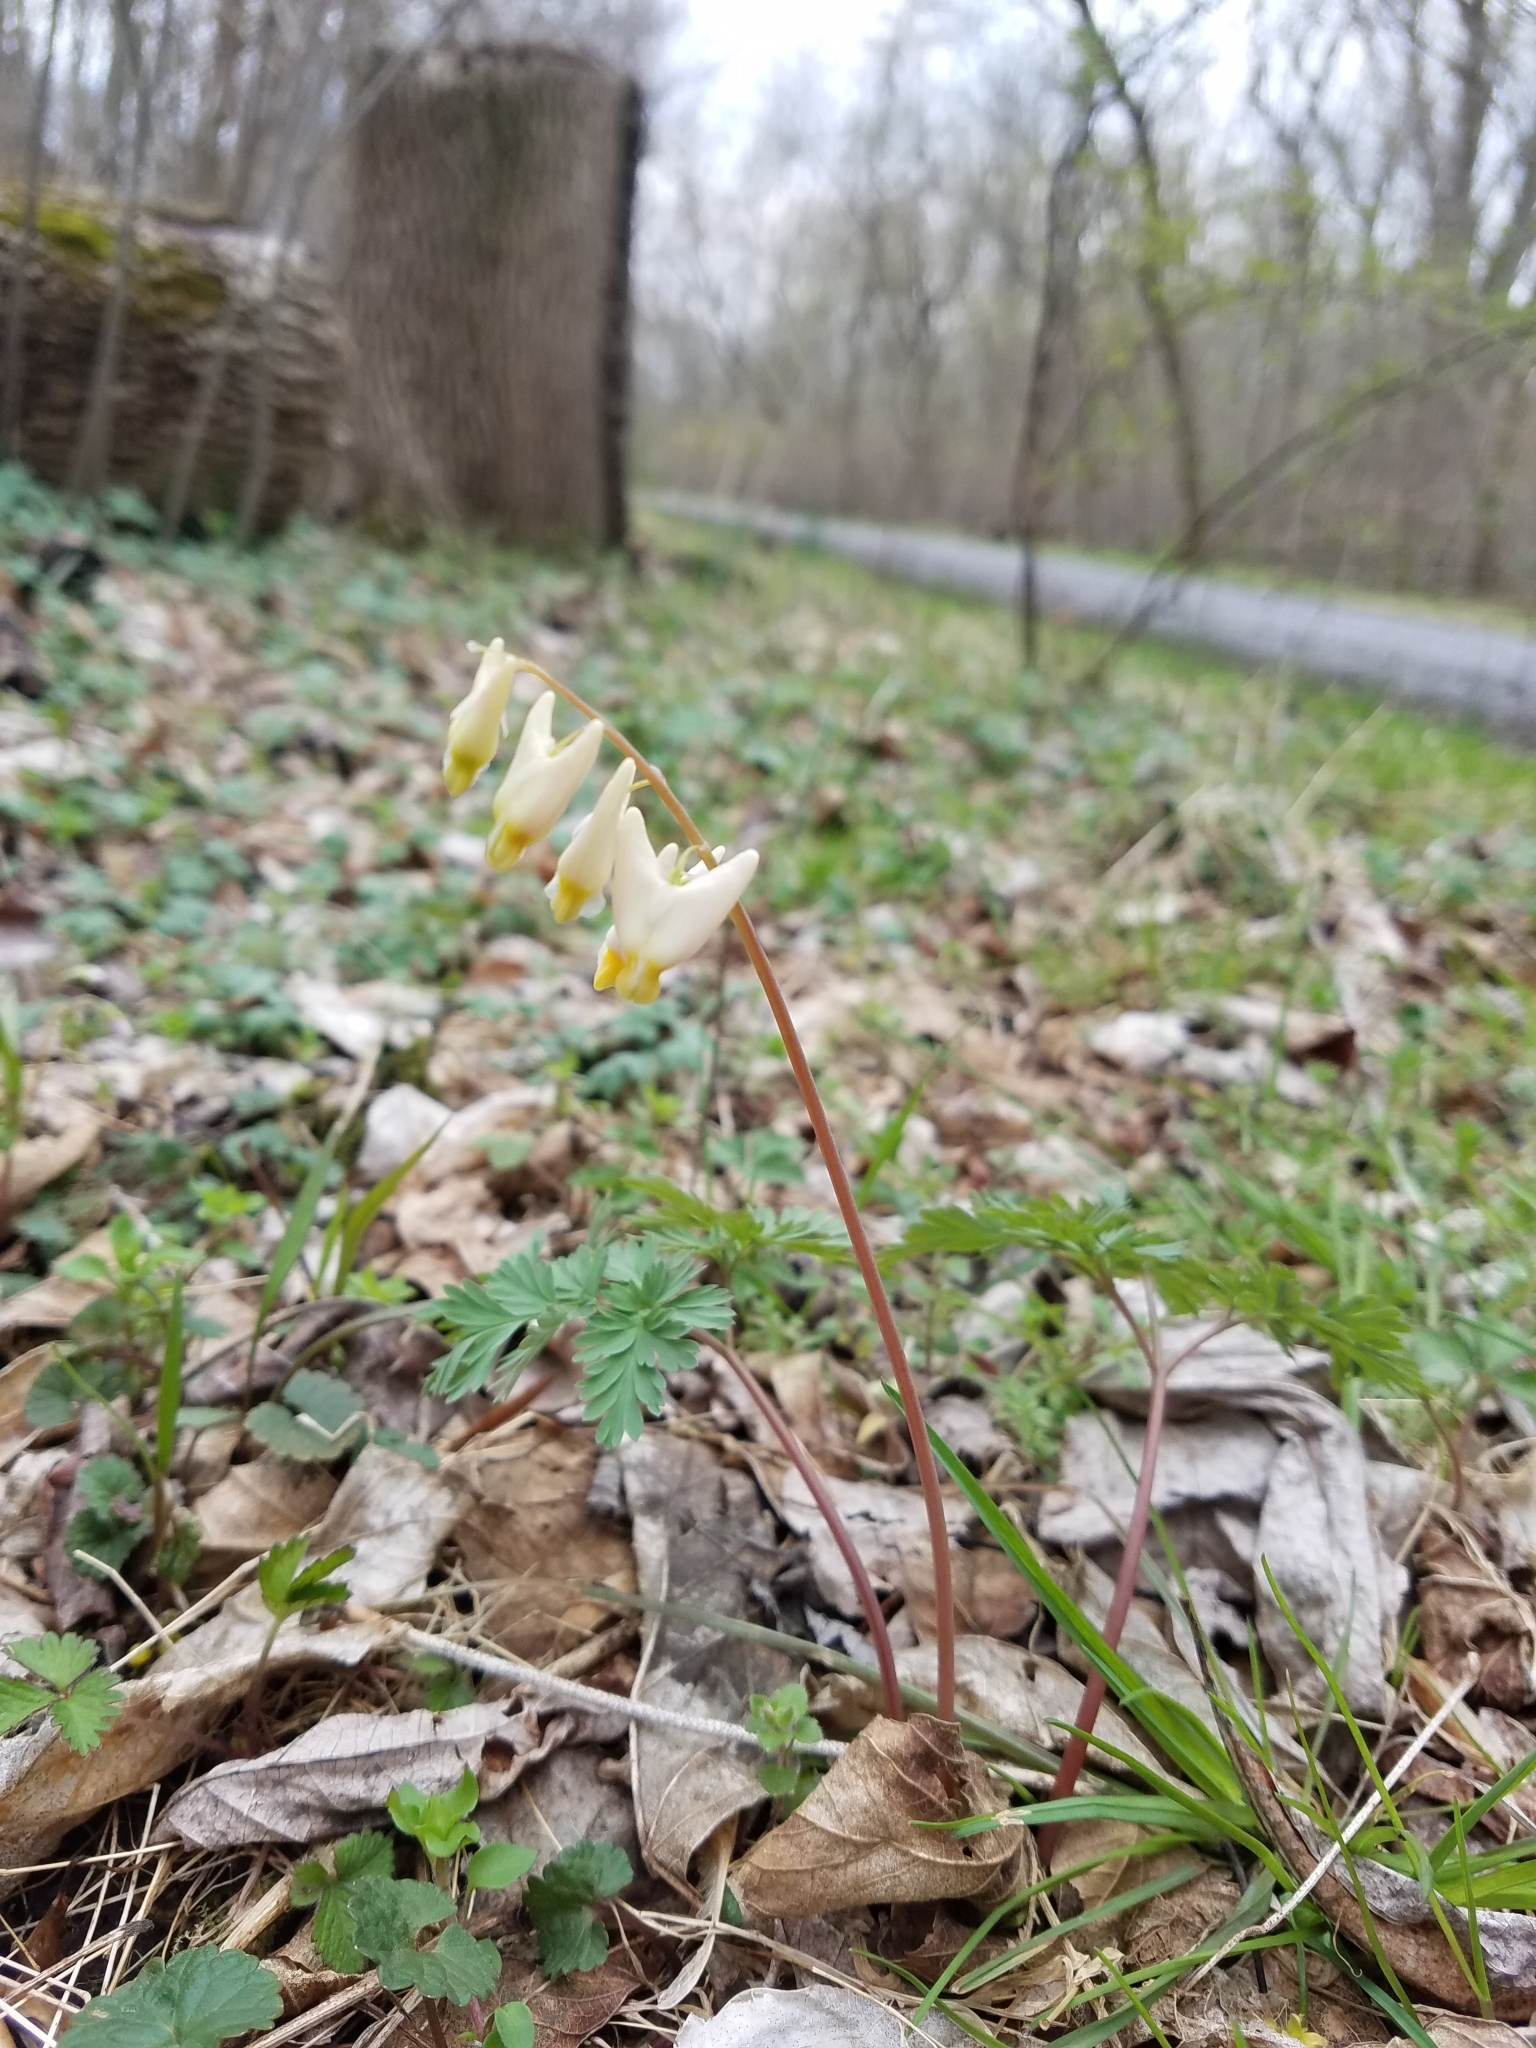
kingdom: Plantae
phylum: Tracheophyta
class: Magnoliopsida
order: Ranunculales
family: Papaveraceae
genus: Dicentra
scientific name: Dicentra cucullaria
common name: Dutchman's breeches
